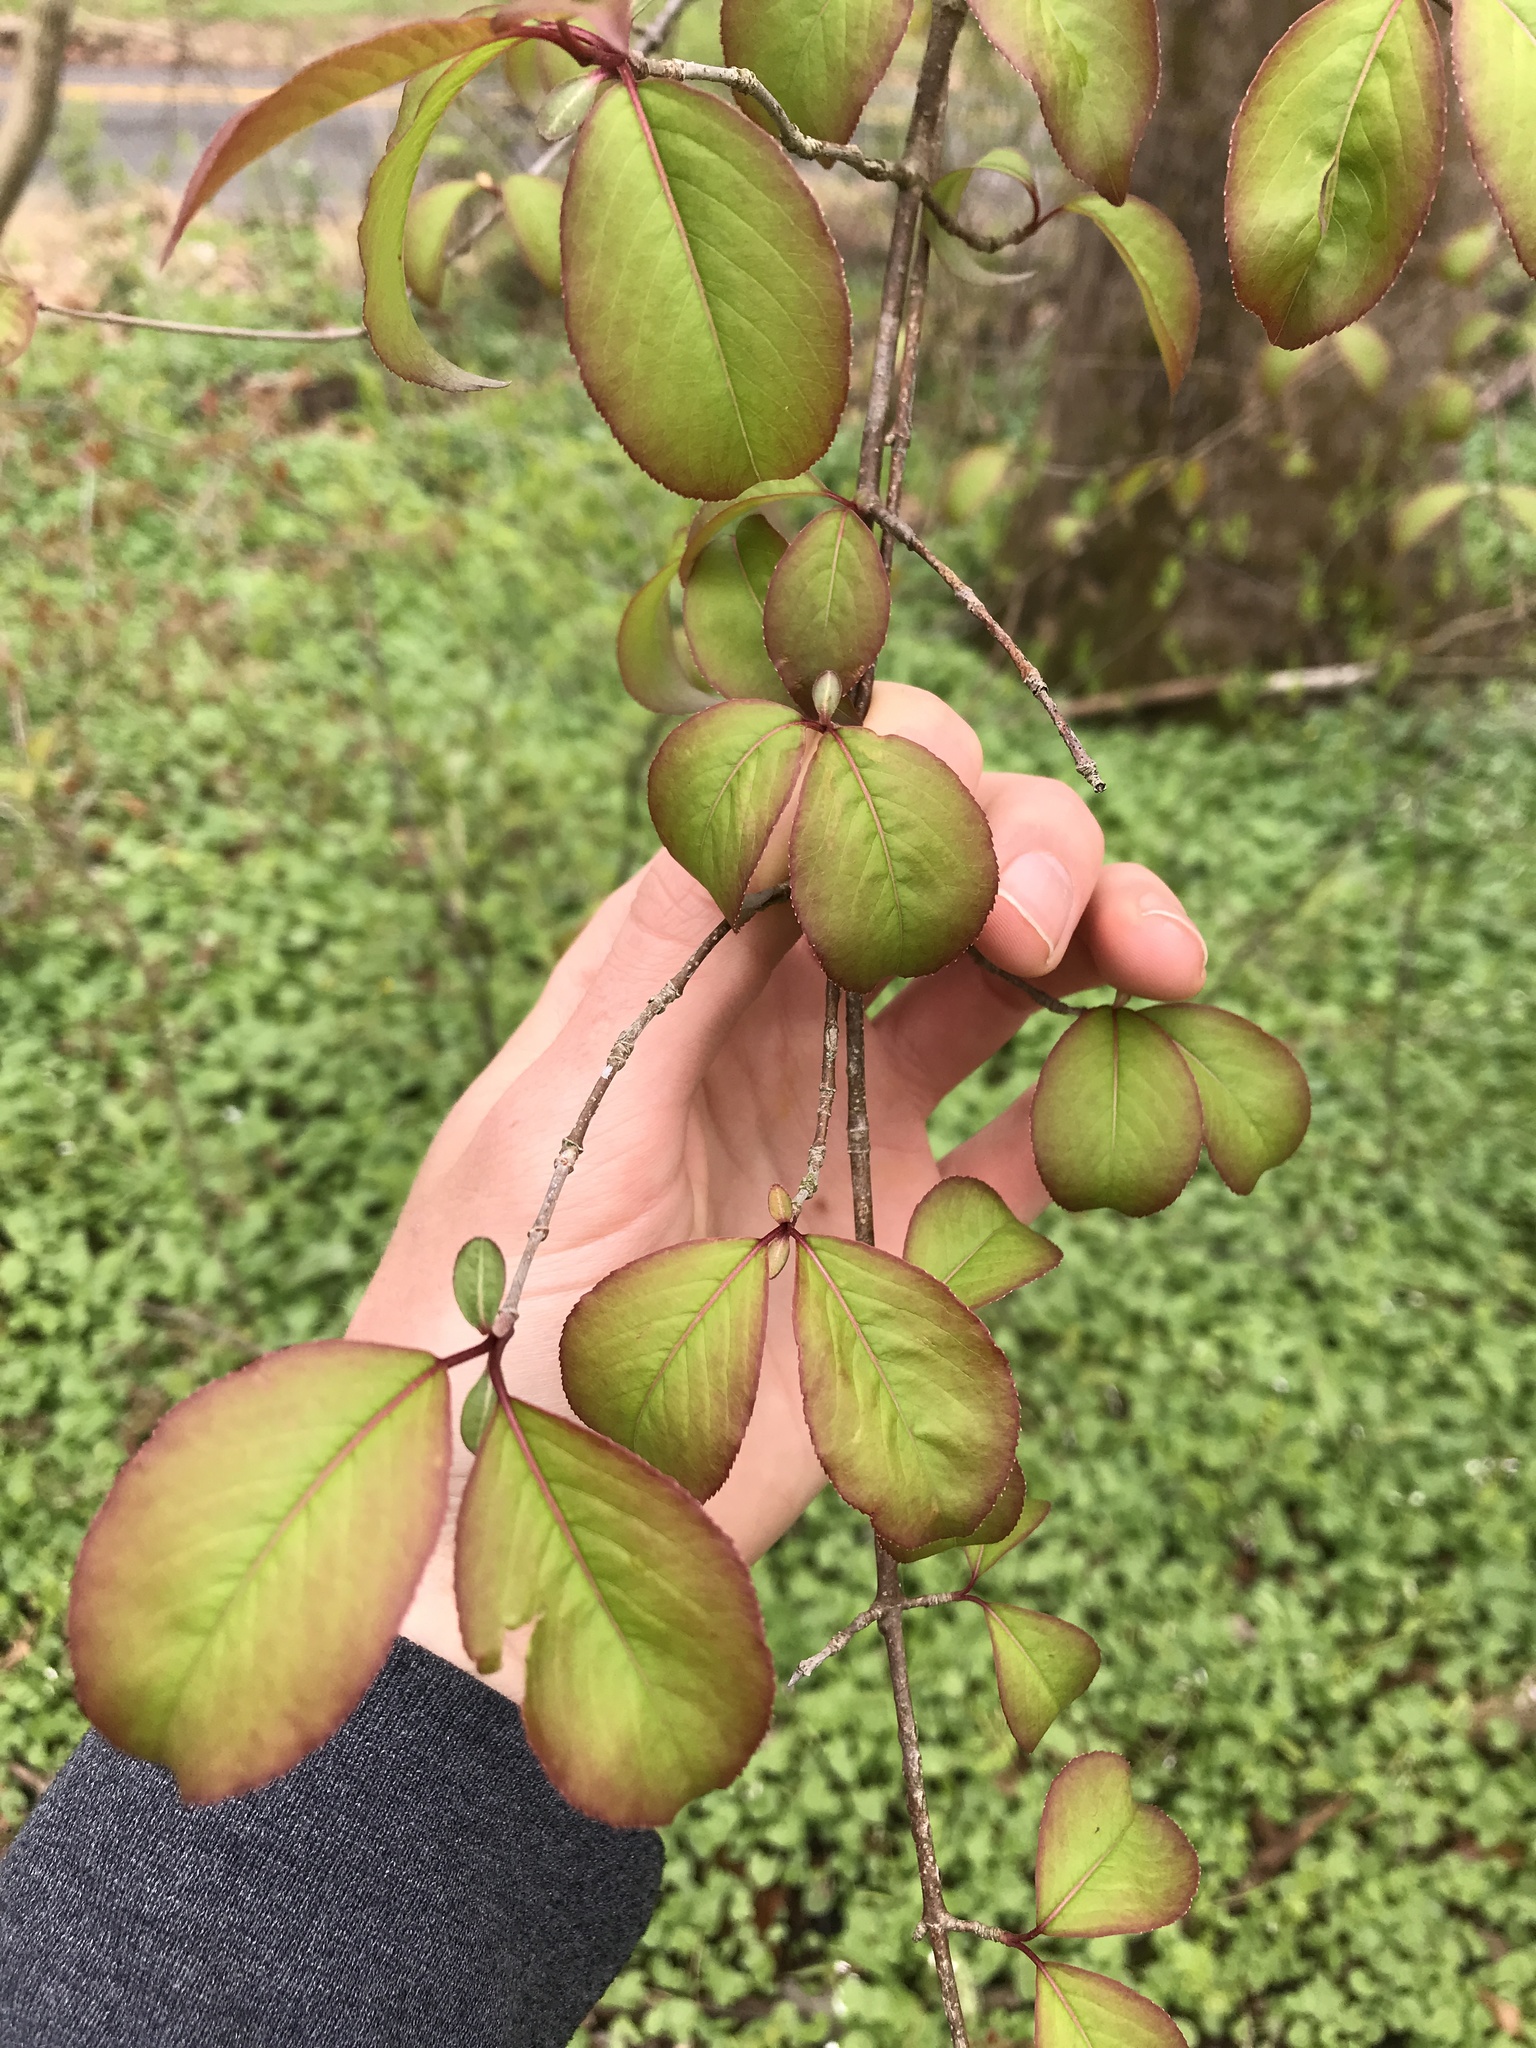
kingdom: Plantae
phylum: Tracheophyta
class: Magnoliopsida
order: Dipsacales
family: Viburnaceae
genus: Viburnum
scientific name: Viburnum prunifolium
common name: Black haw
